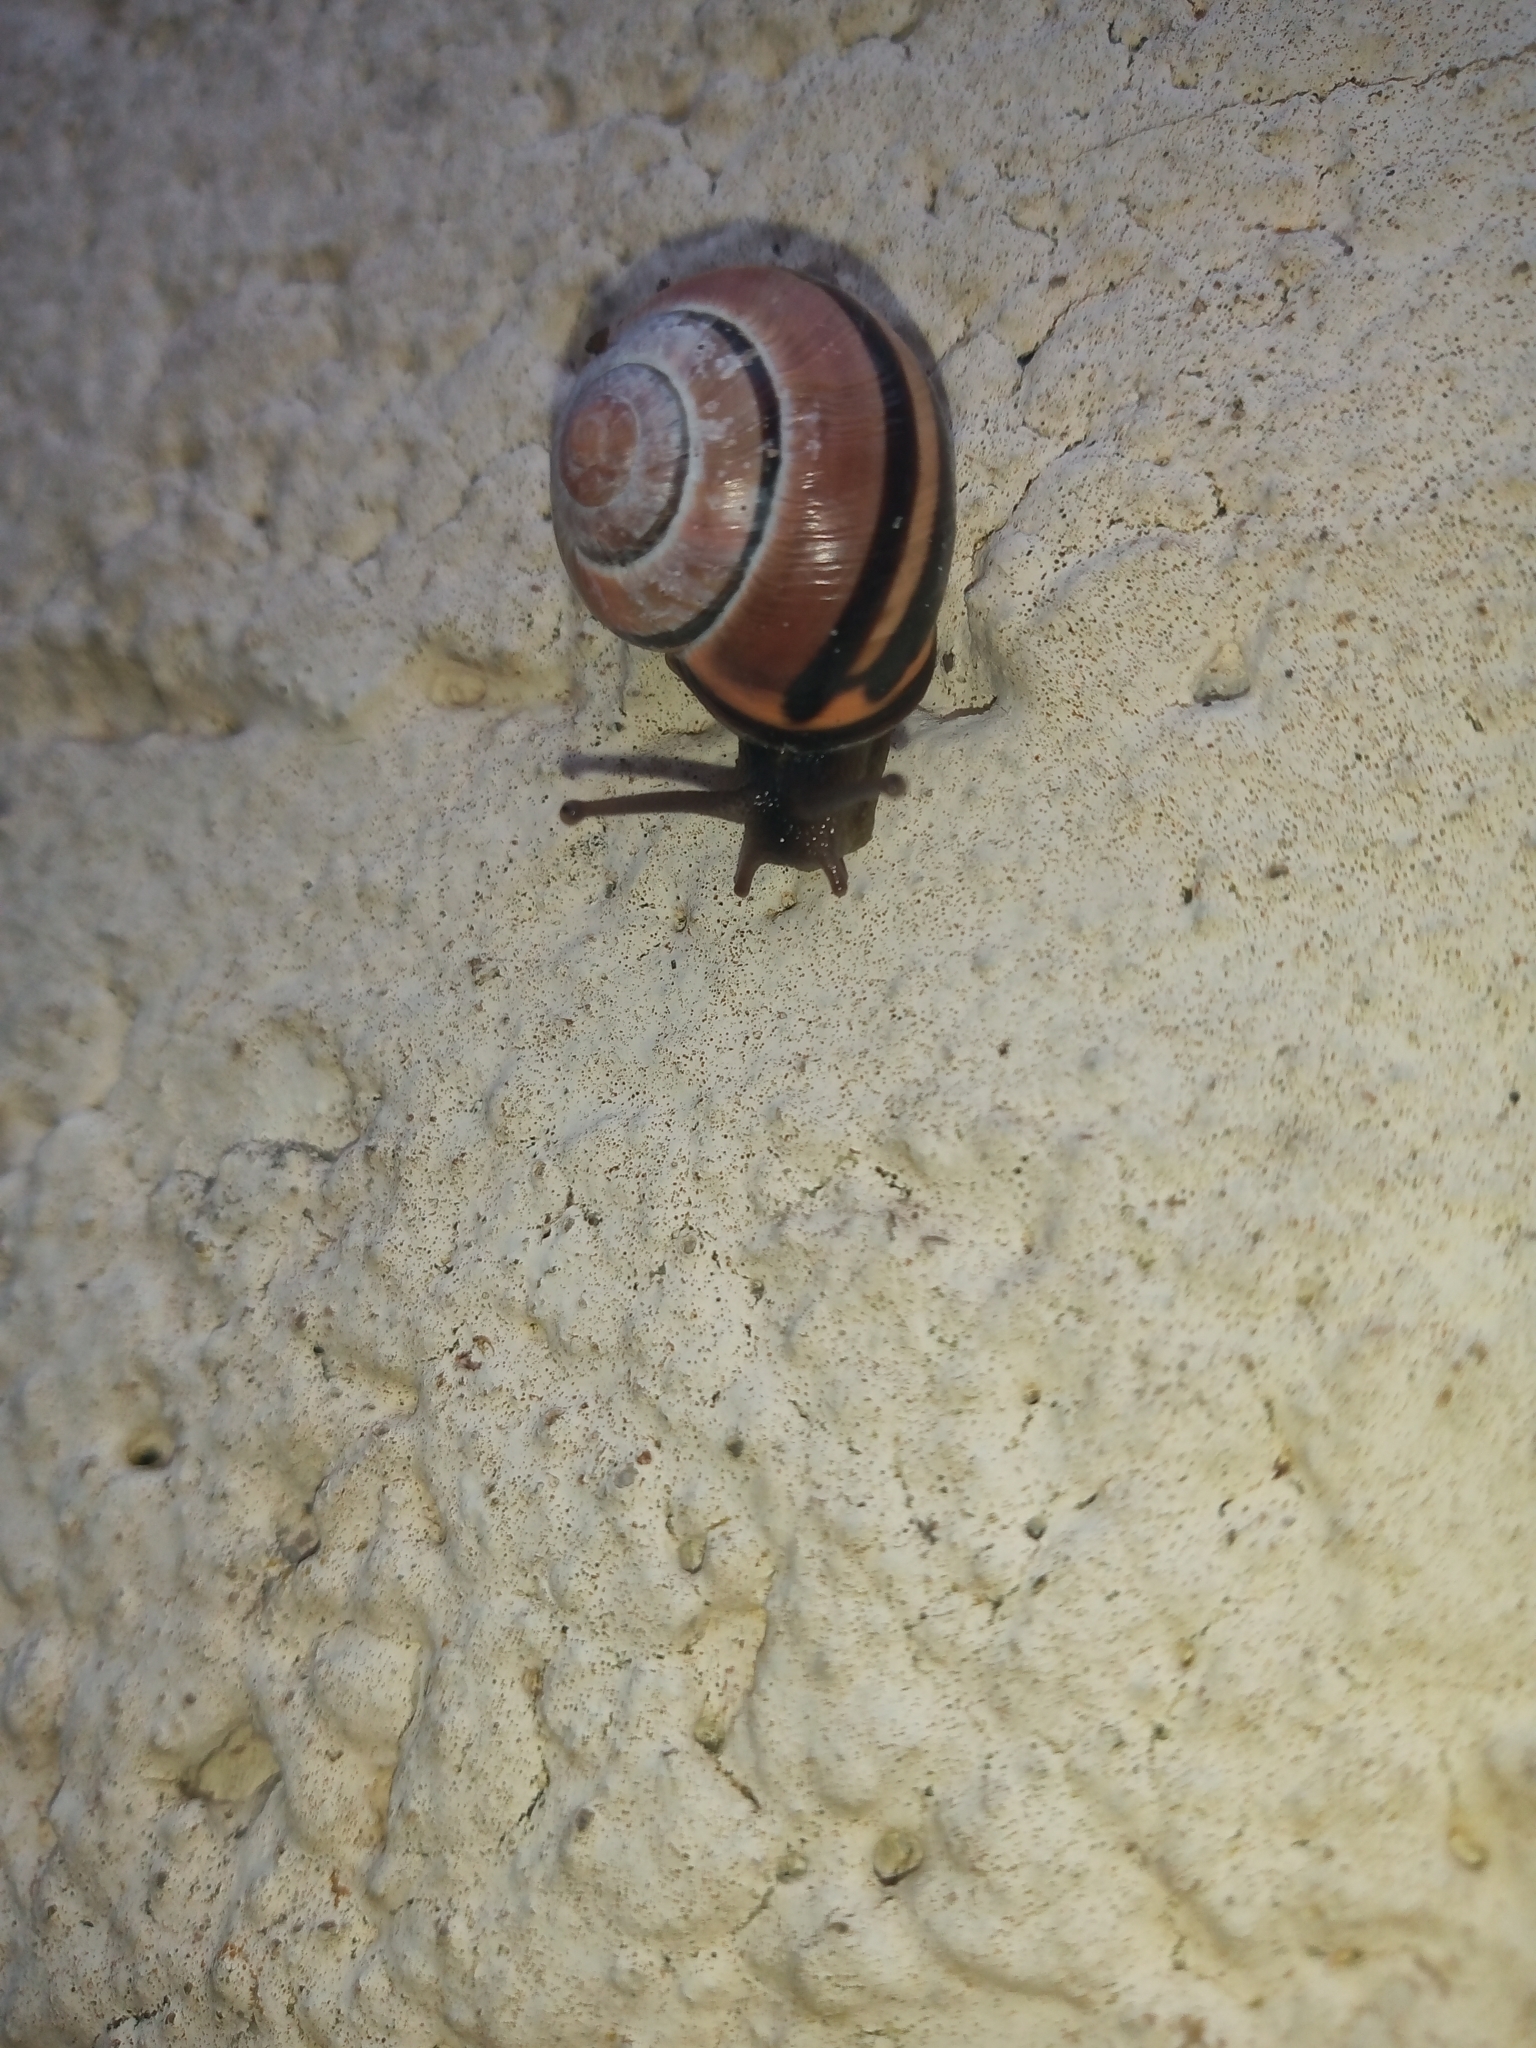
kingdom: Animalia
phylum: Mollusca
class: Gastropoda
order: Stylommatophora
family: Helicidae
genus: Cepaea
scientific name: Cepaea nemoralis
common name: Grovesnail
